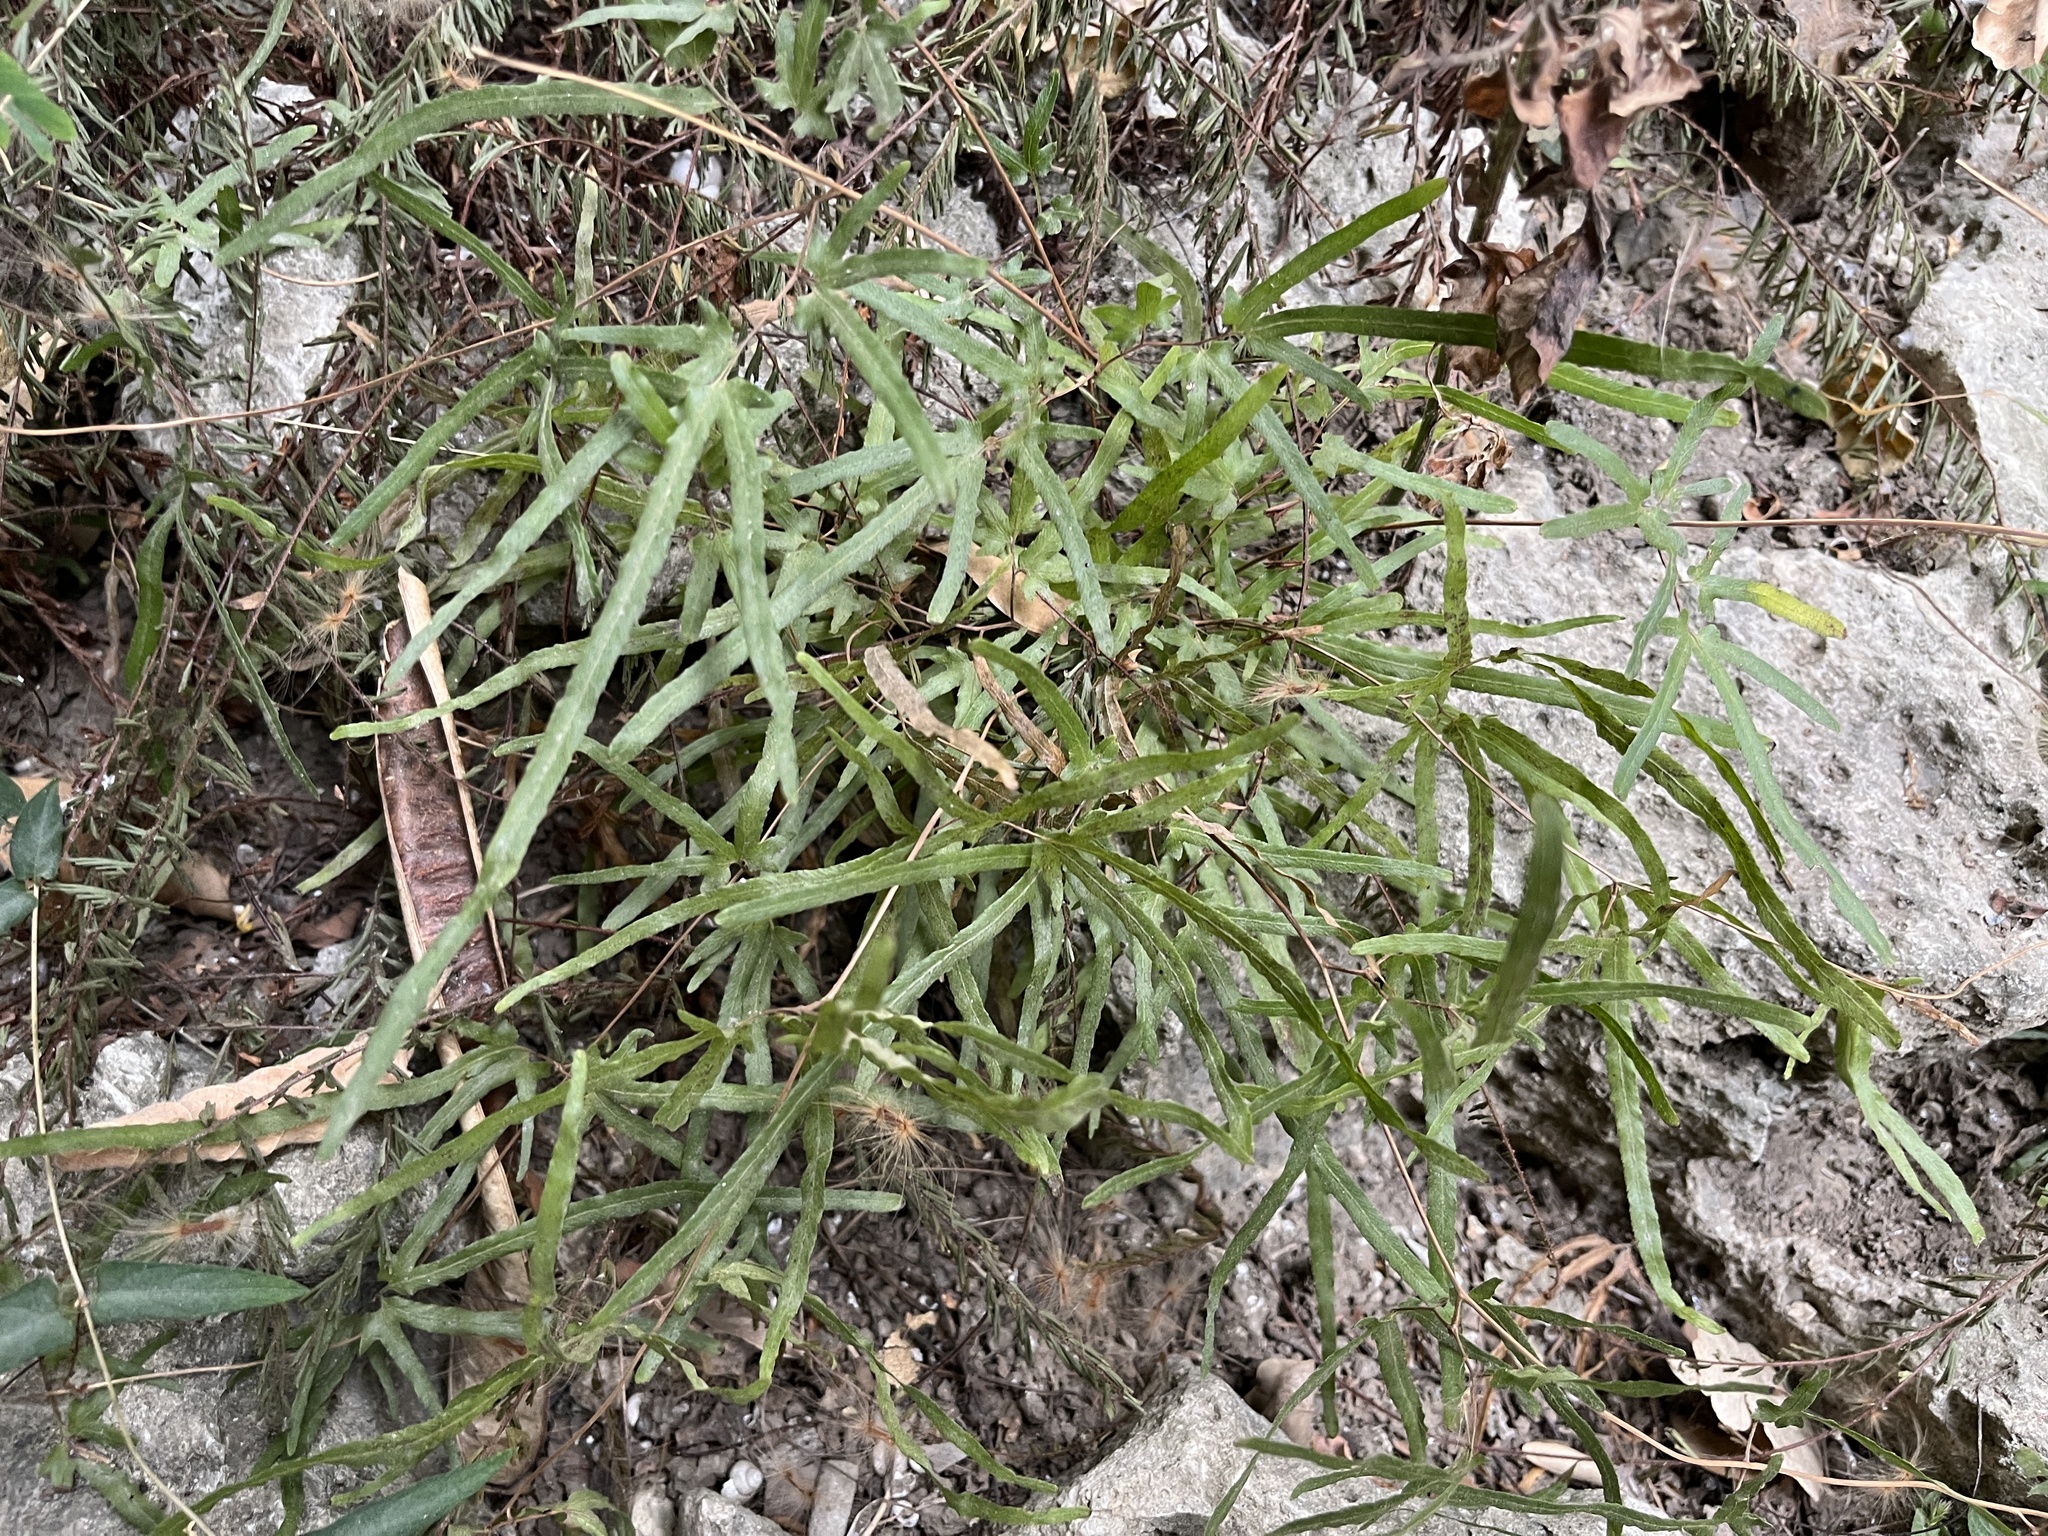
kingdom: Plantae
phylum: Tracheophyta
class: Polypodiopsida
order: Schizaeales
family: Lygodiaceae
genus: Lygodium
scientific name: Lygodium japonicum
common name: Japanese climbing fern
